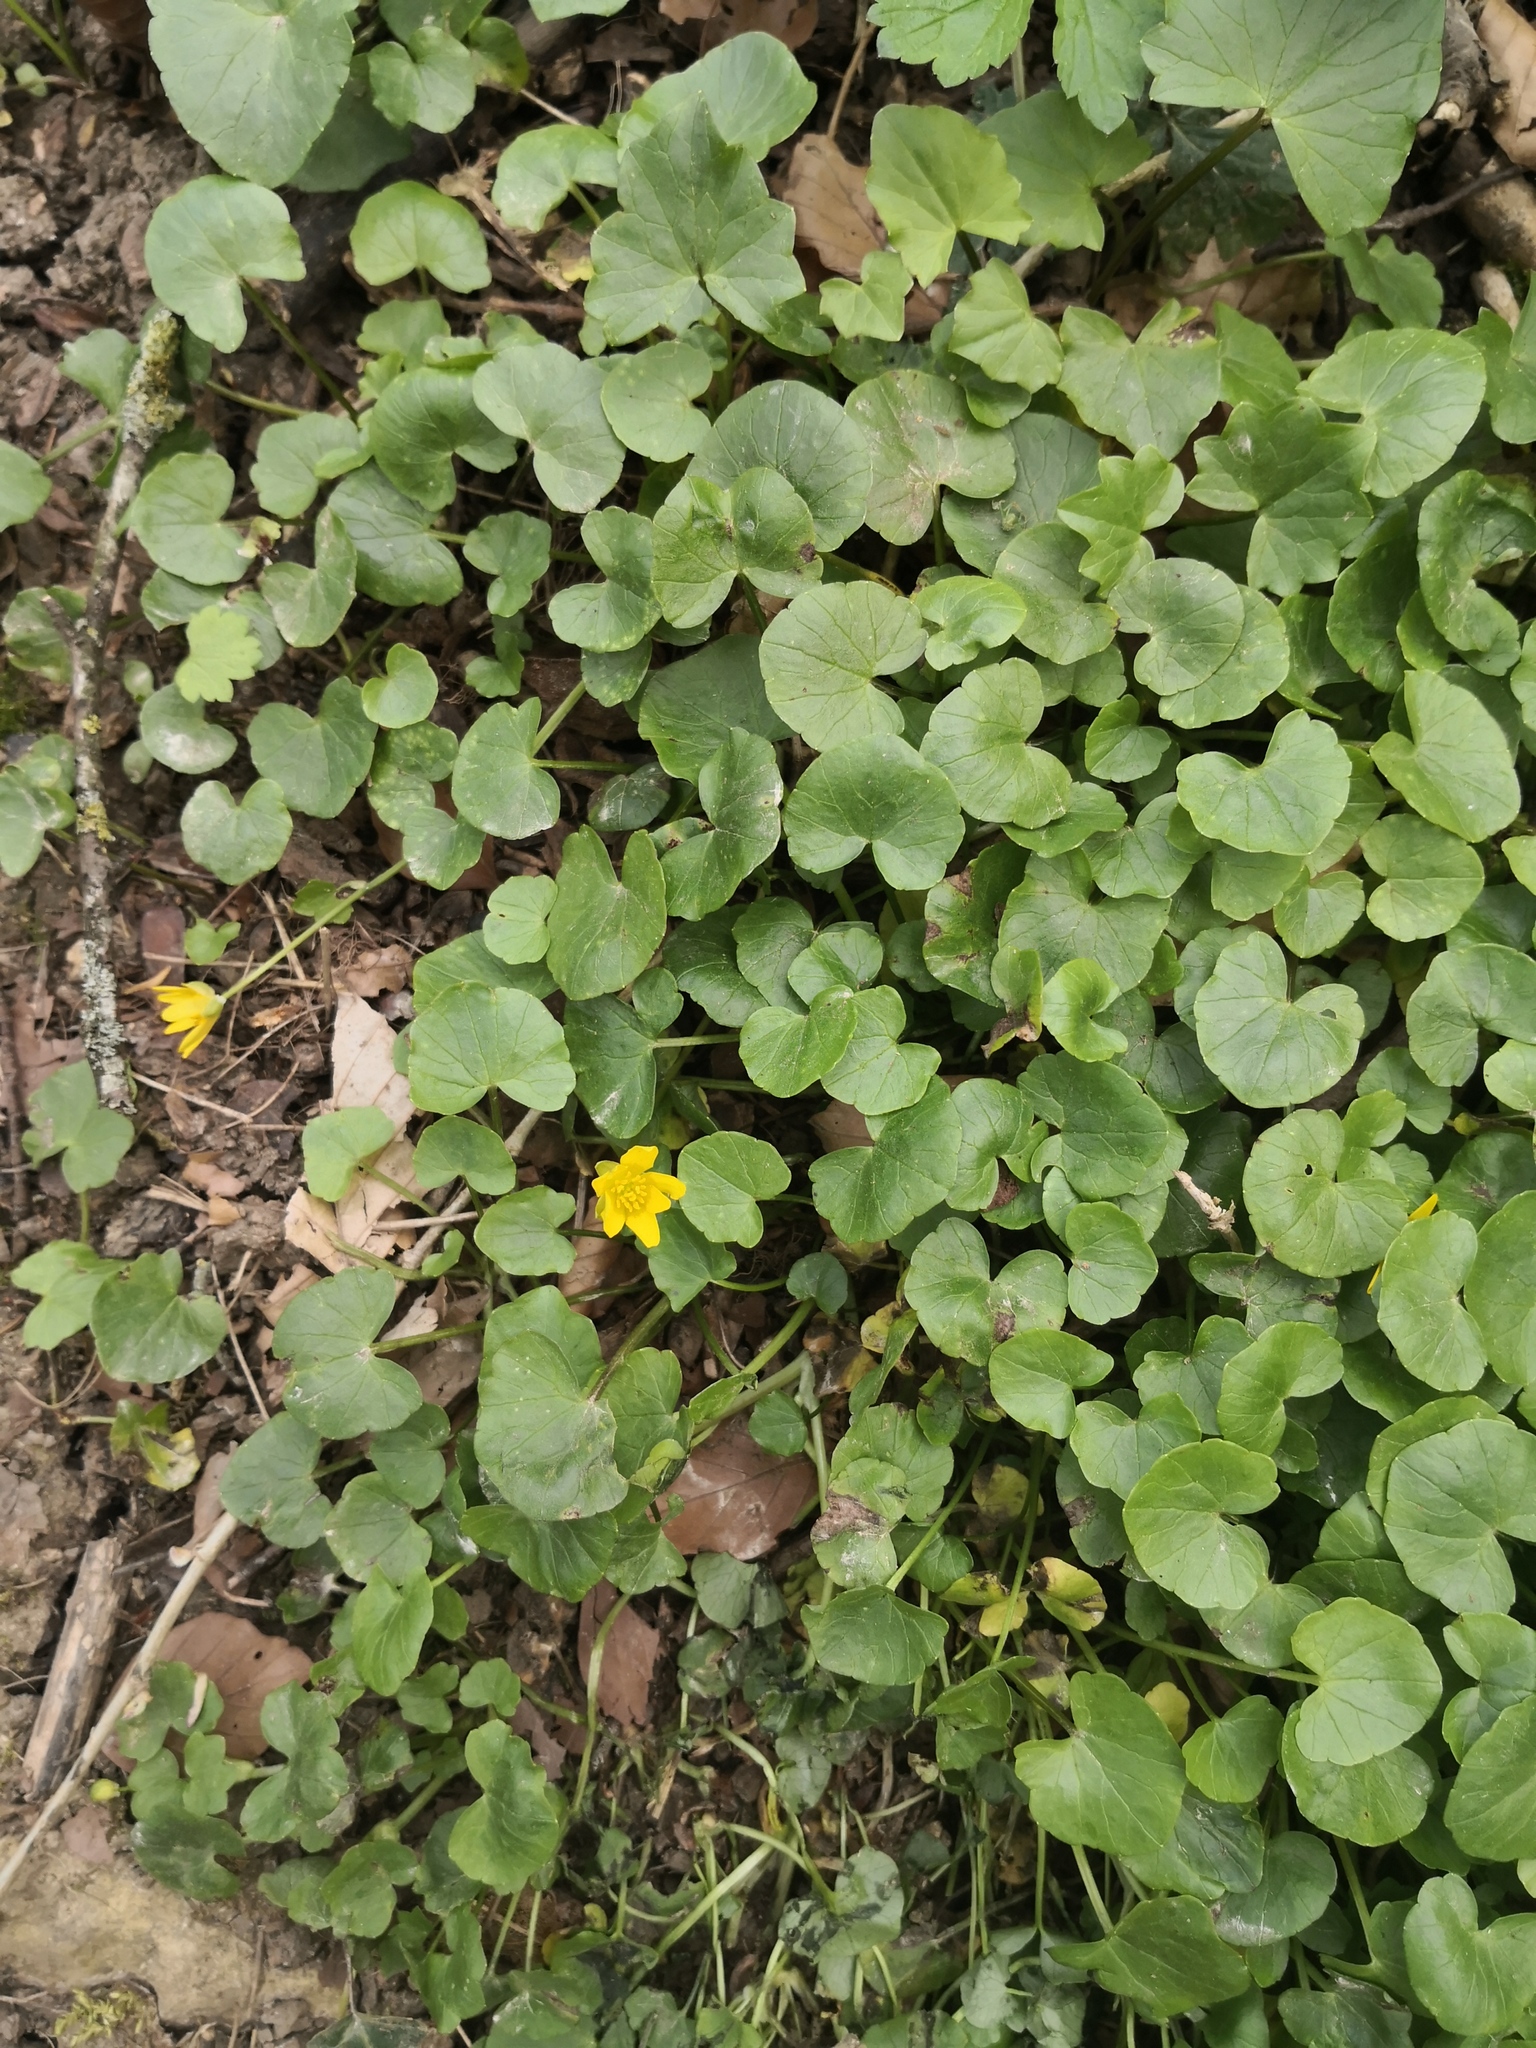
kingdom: Plantae
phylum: Tracheophyta
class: Magnoliopsida
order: Ranunculales
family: Ranunculaceae
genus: Ficaria
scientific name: Ficaria verna
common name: Lesser celandine
